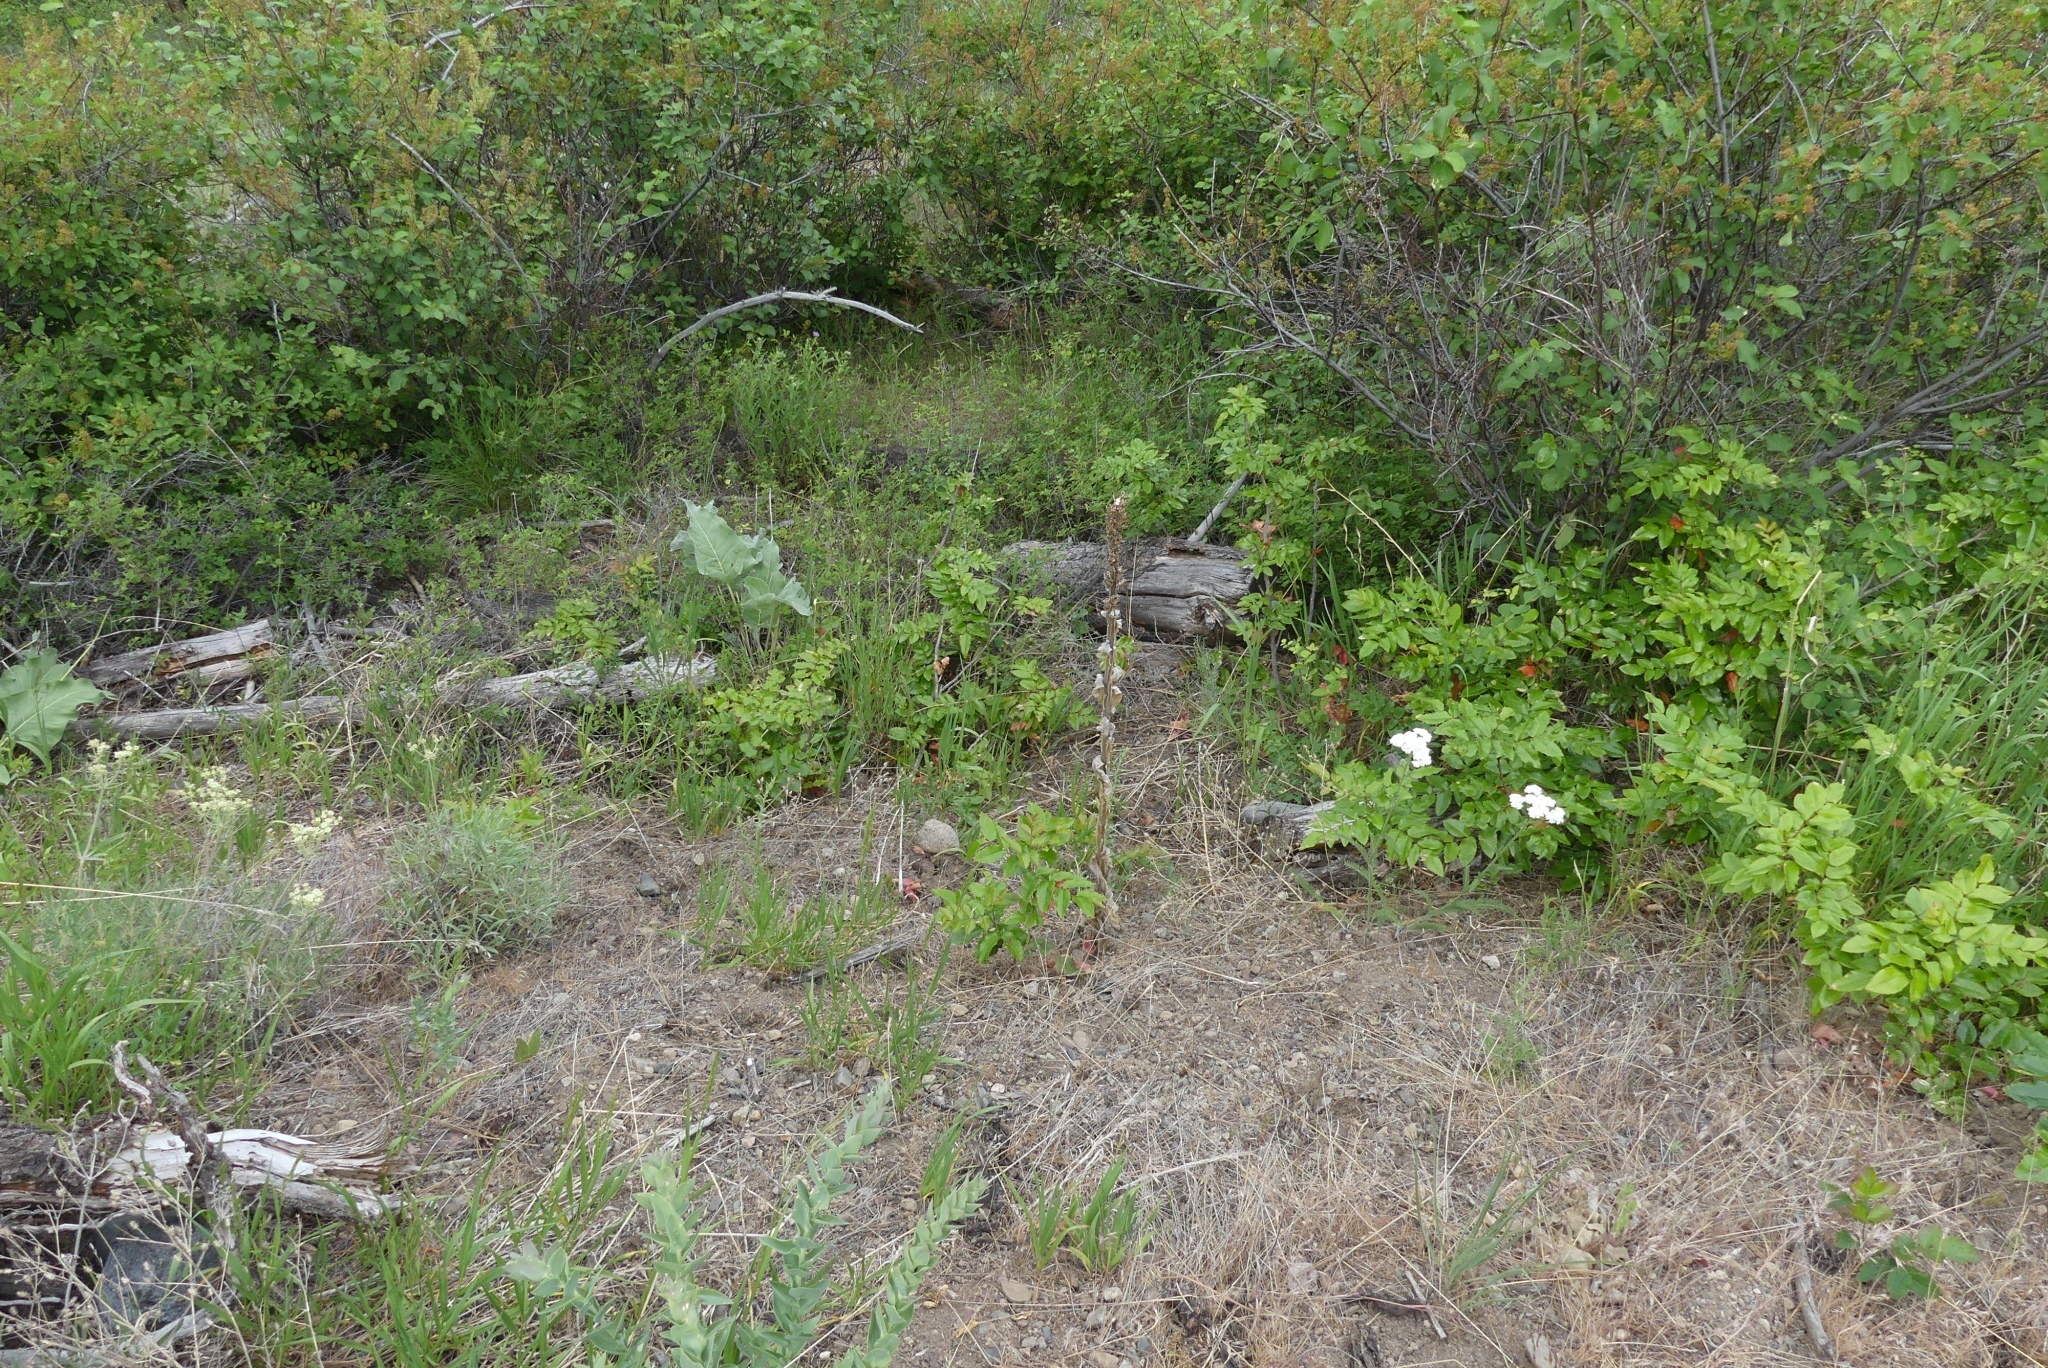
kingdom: Plantae
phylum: Tracheophyta
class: Magnoliopsida
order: Lamiales
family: Scrophulariaceae
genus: Verbascum
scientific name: Verbascum thapsus
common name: Common mullein
